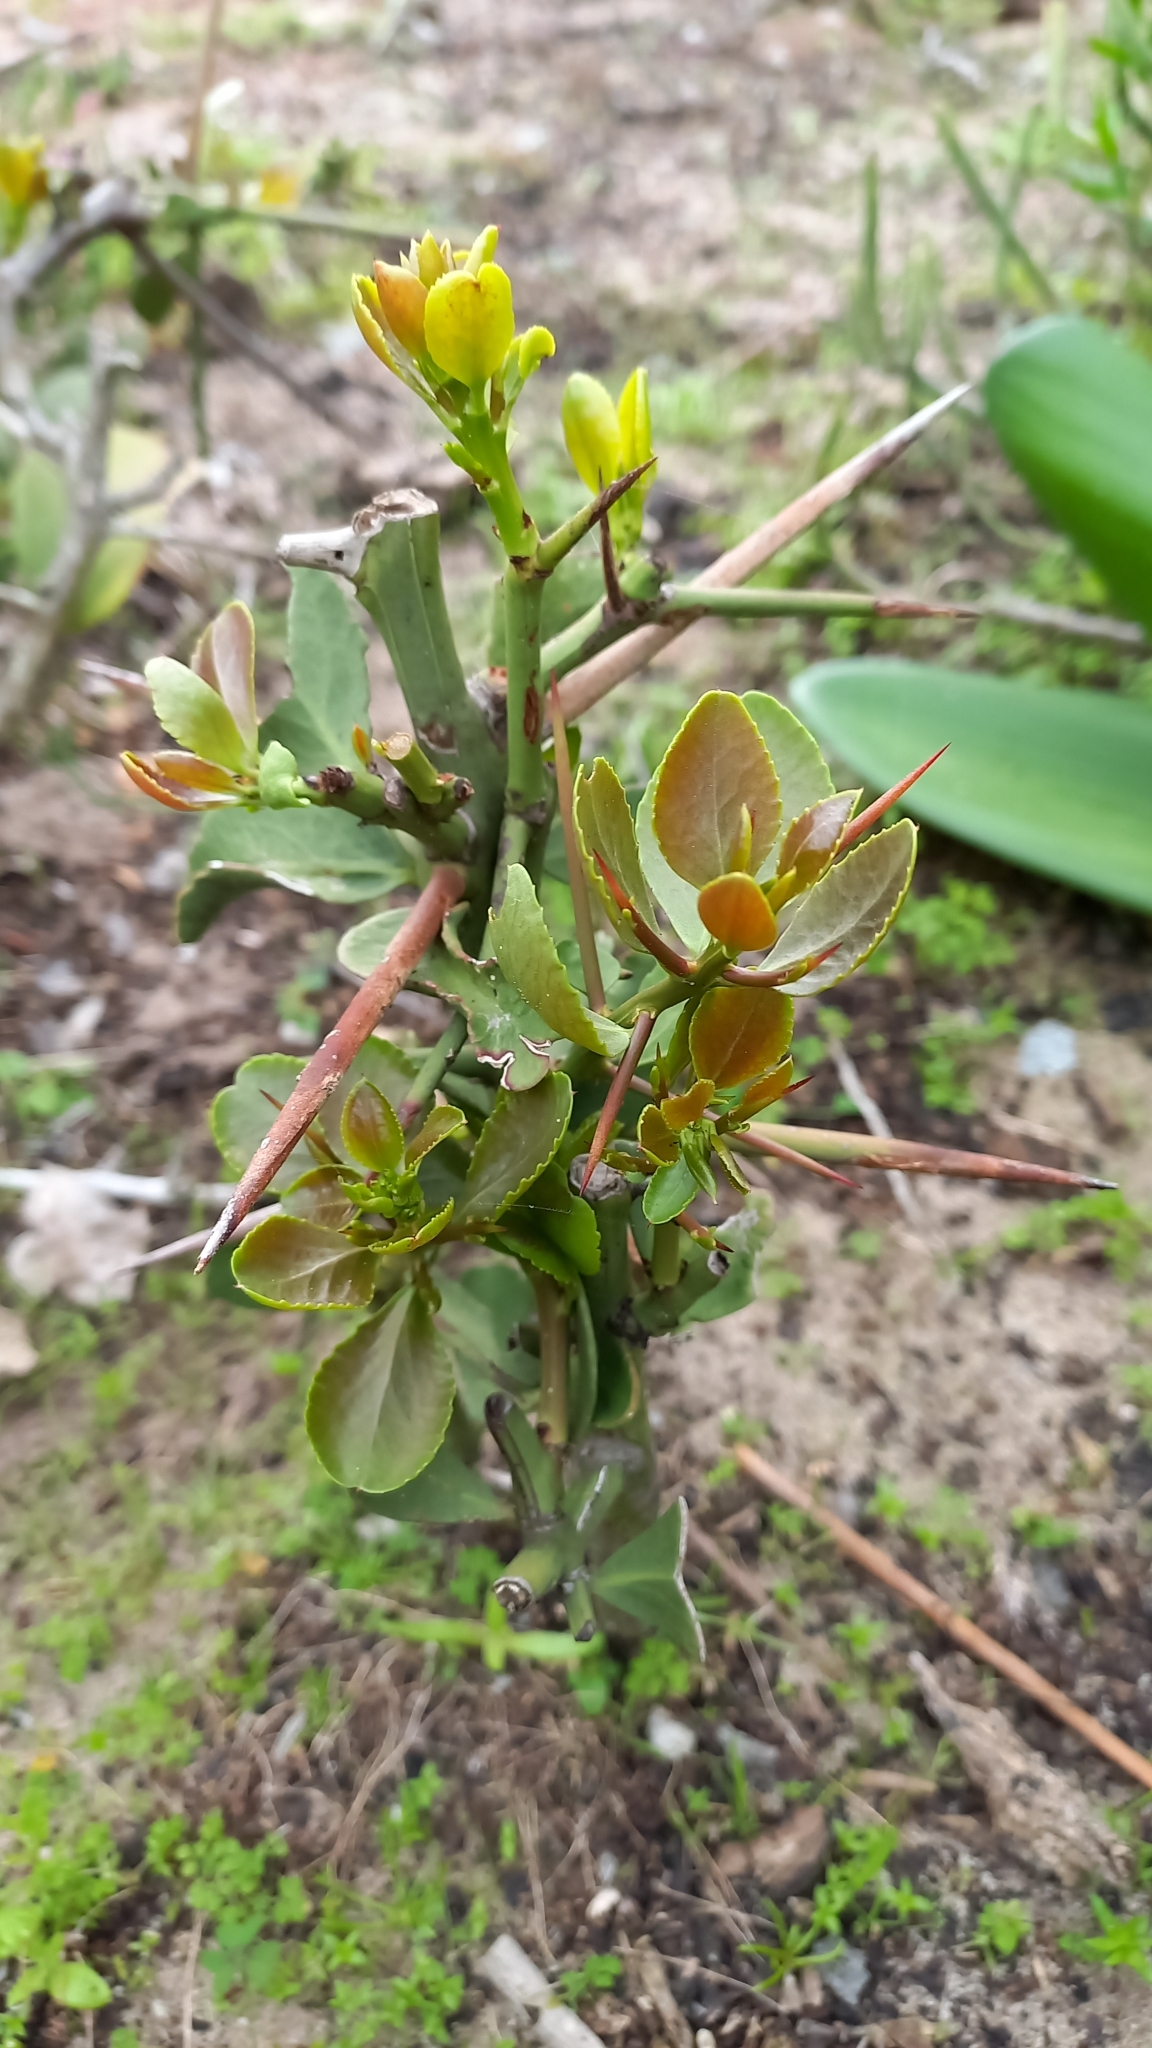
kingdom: Plantae
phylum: Tracheophyta
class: Magnoliopsida
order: Celastrales
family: Celastraceae
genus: Gymnosporia
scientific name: Gymnosporia buxifolia
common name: Common spike-thorn
